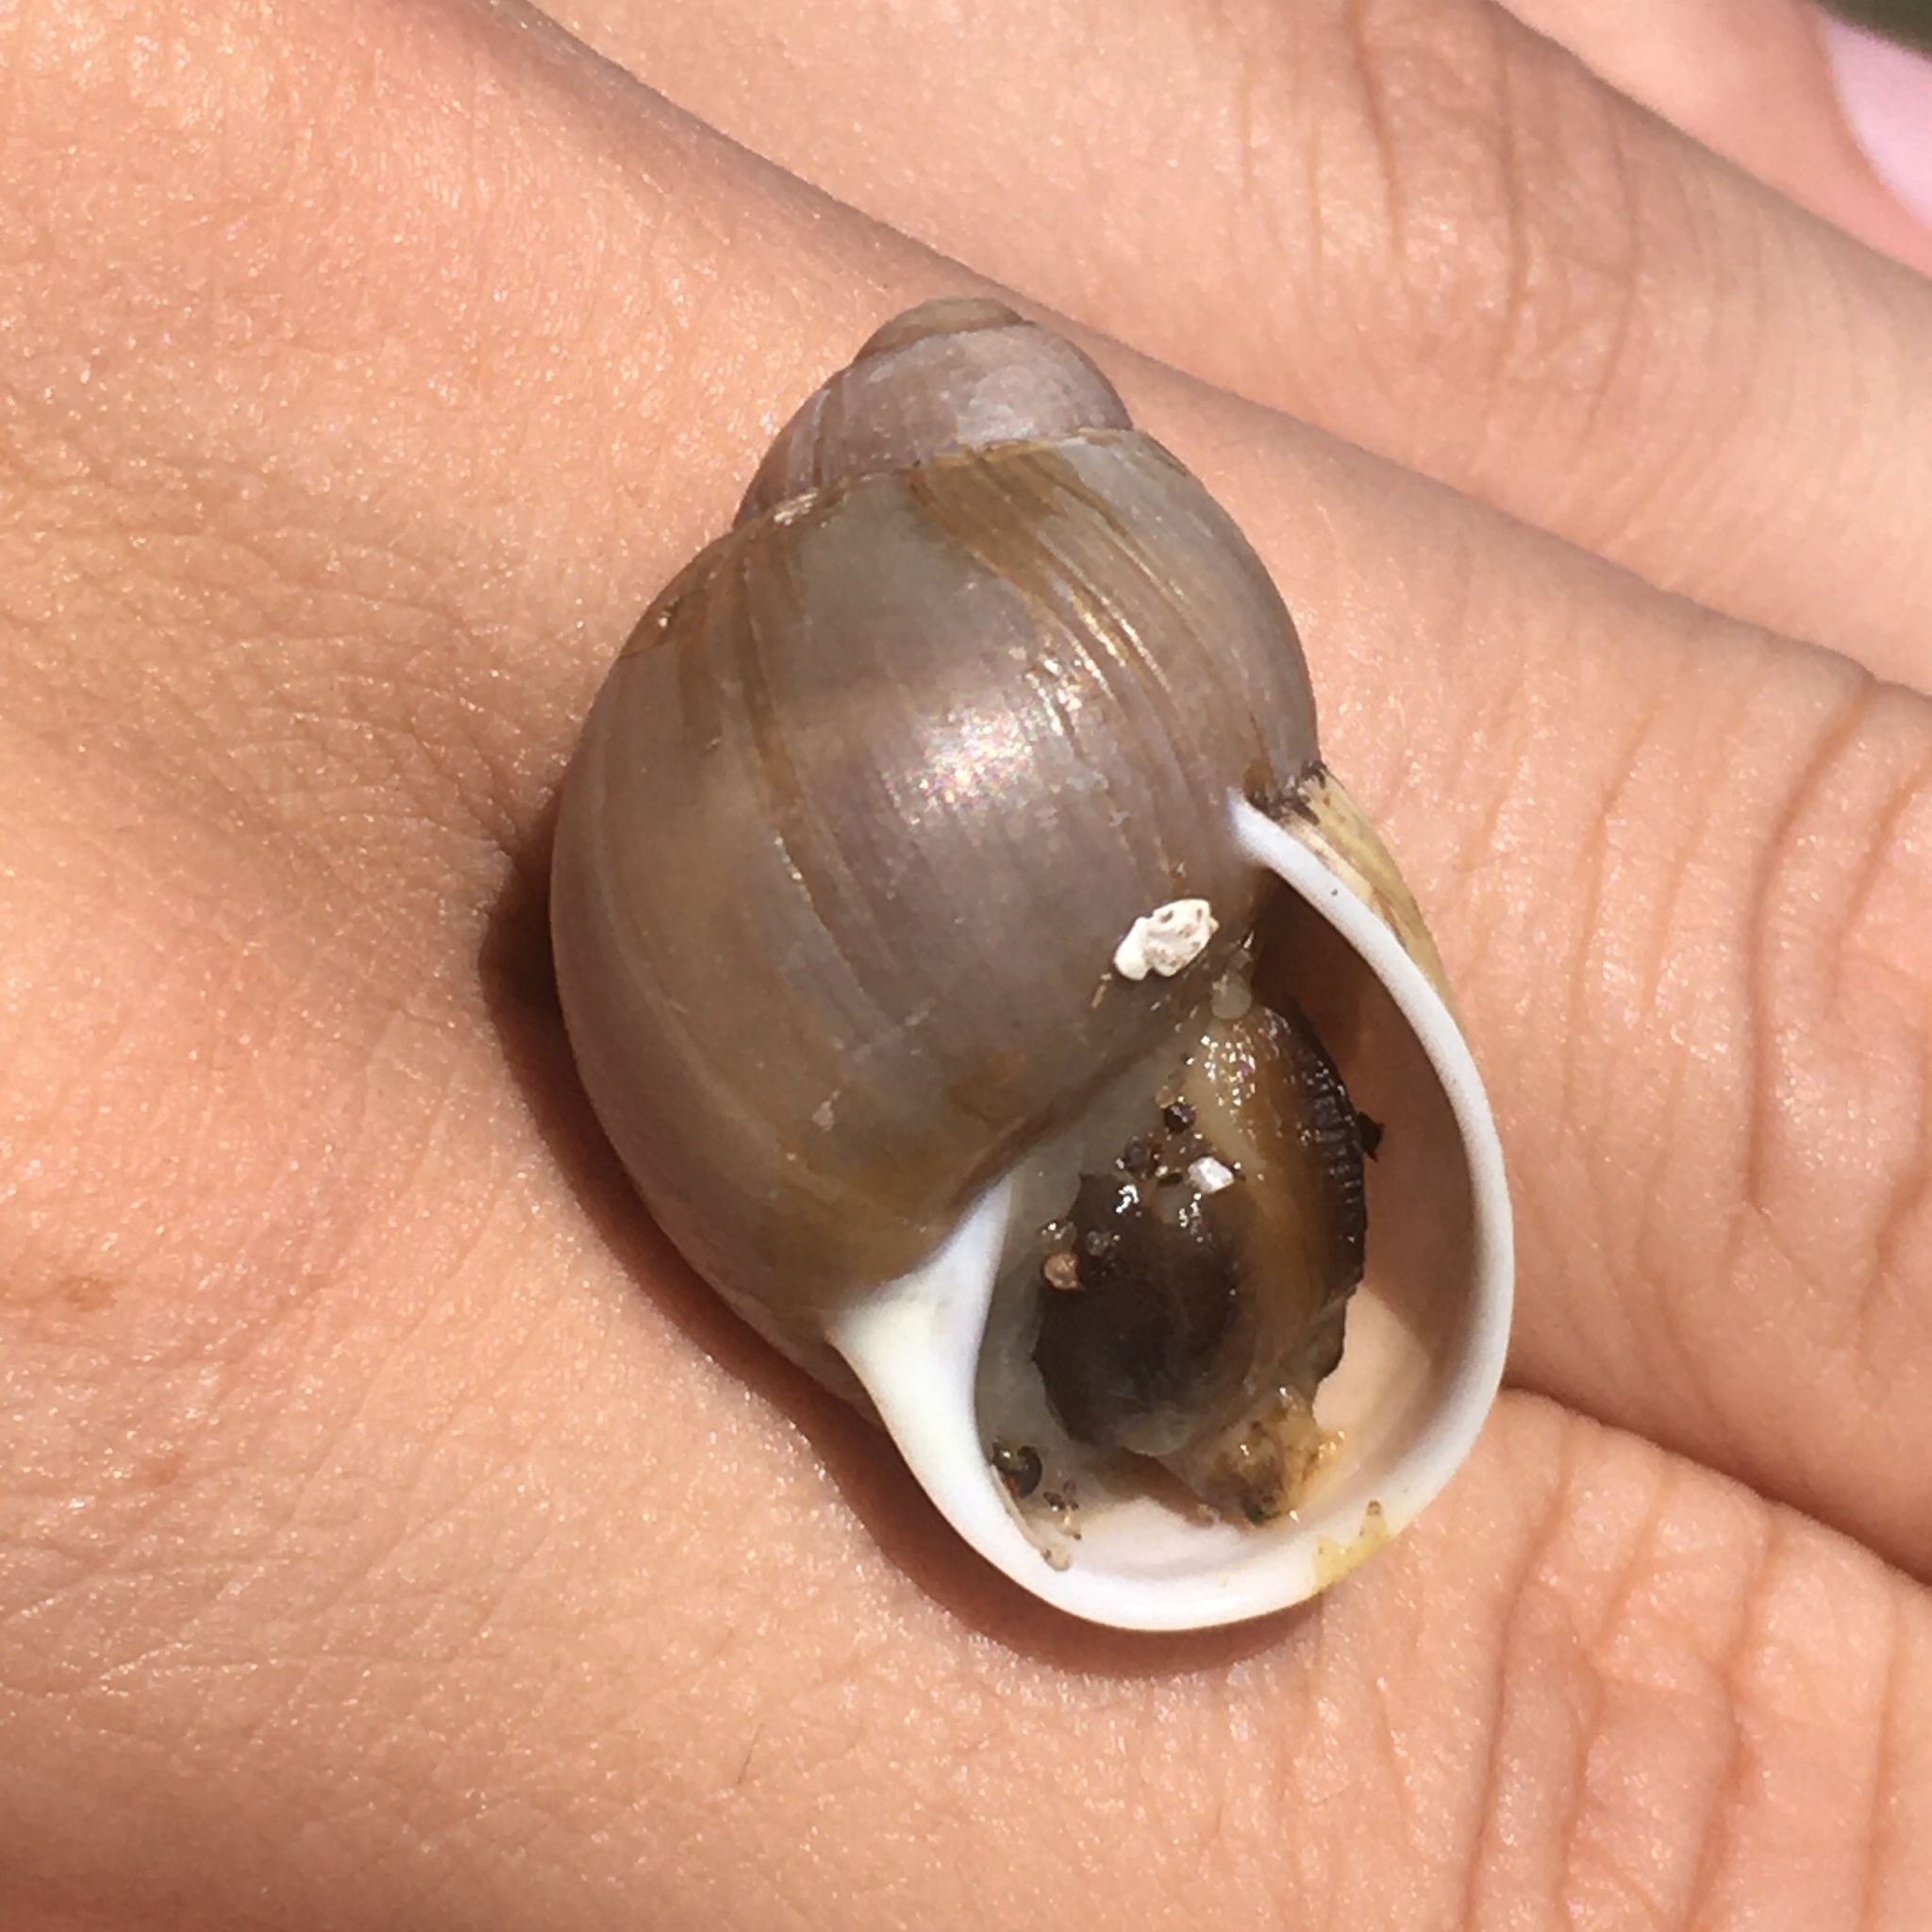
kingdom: Animalia
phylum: Mollusca
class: Gastropoda
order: Stylommatophora
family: Strophocheilidae
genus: Austroborus
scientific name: Austroborus dorbignyi
